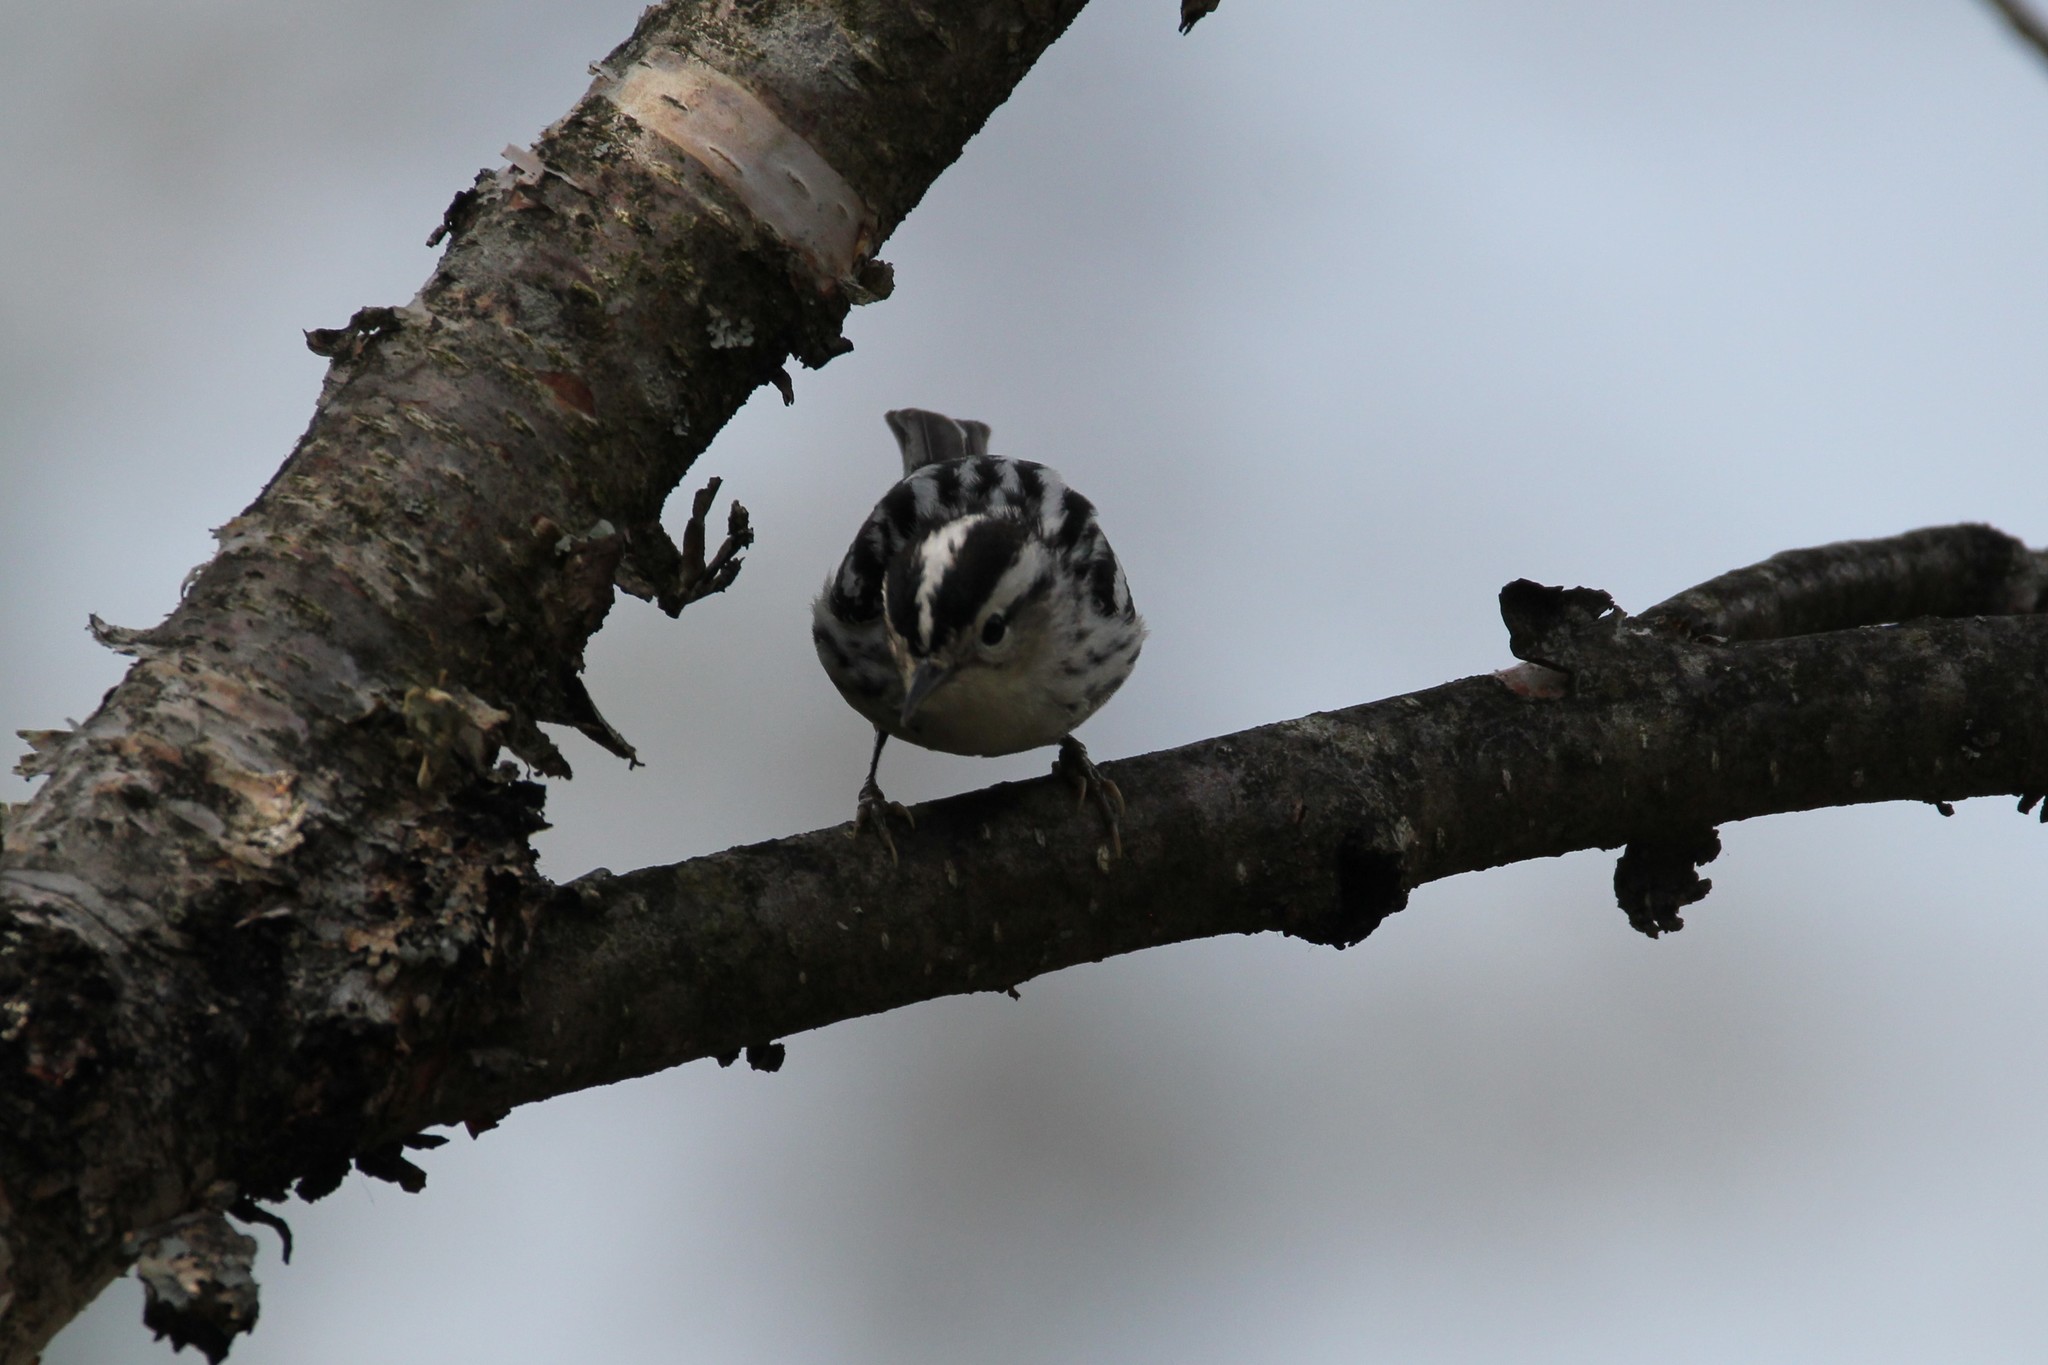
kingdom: Animalia
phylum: Chordata
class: Aves
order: Passeriformes
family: Parulidae
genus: Mniotilta
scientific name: Mniotilta varia
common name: Black-and-white warbler
